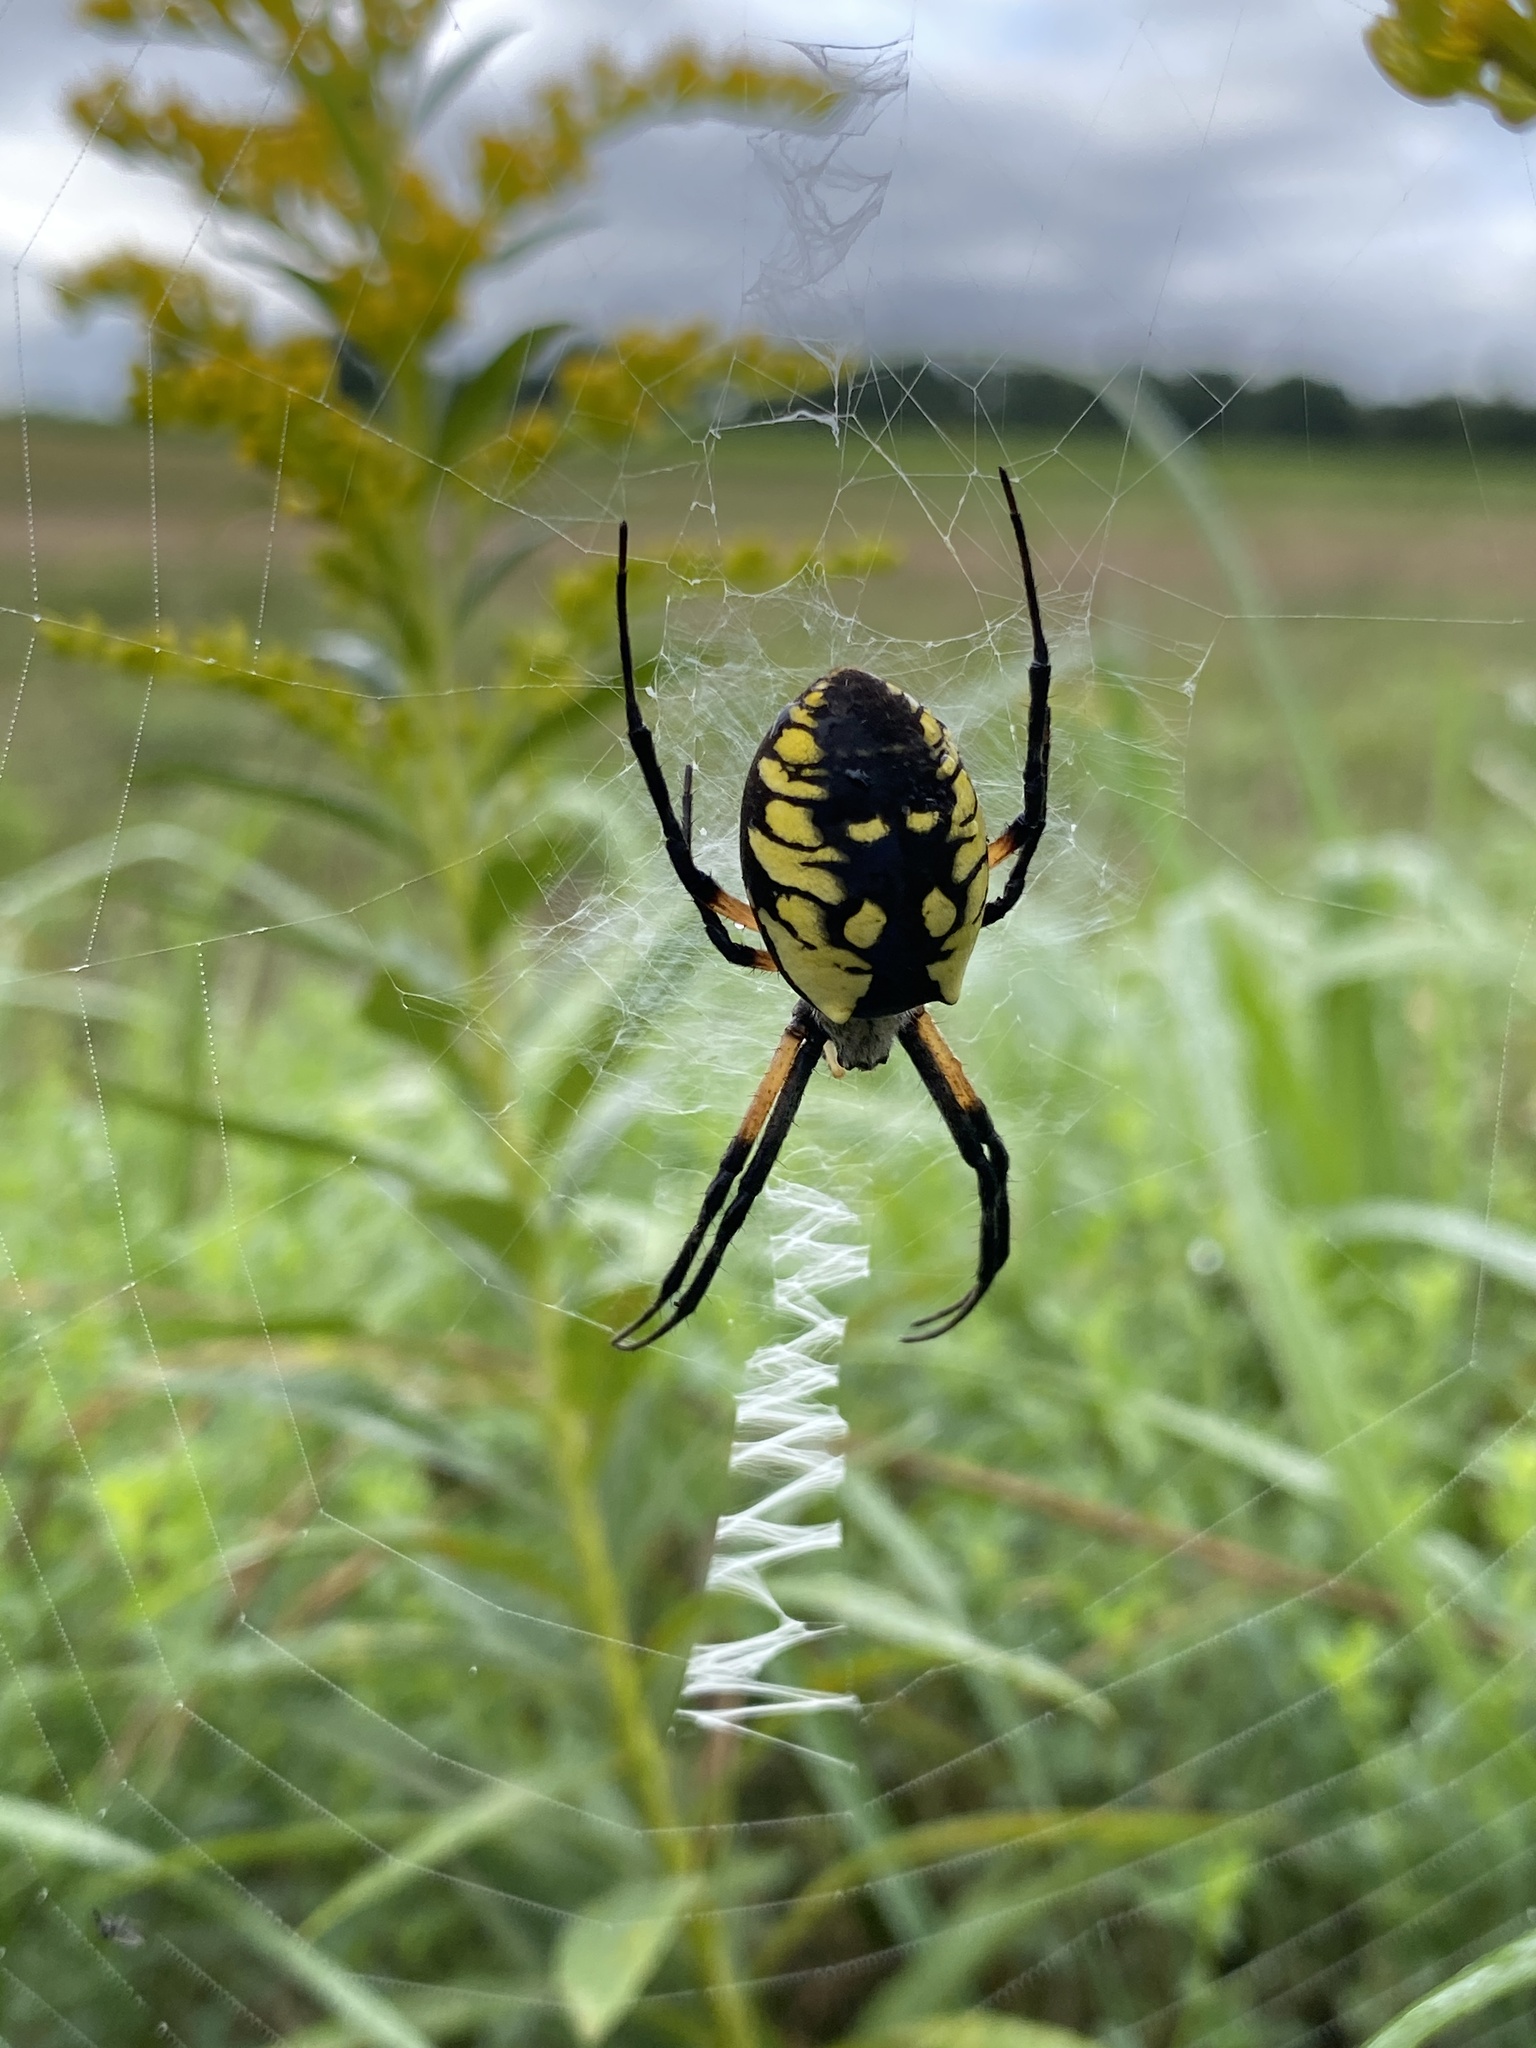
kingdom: Animalia
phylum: Arthropoda
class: Arachnida
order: Araneae
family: Araneidae
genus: Argiope
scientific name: Argiope aurantia
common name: Orb weavers
